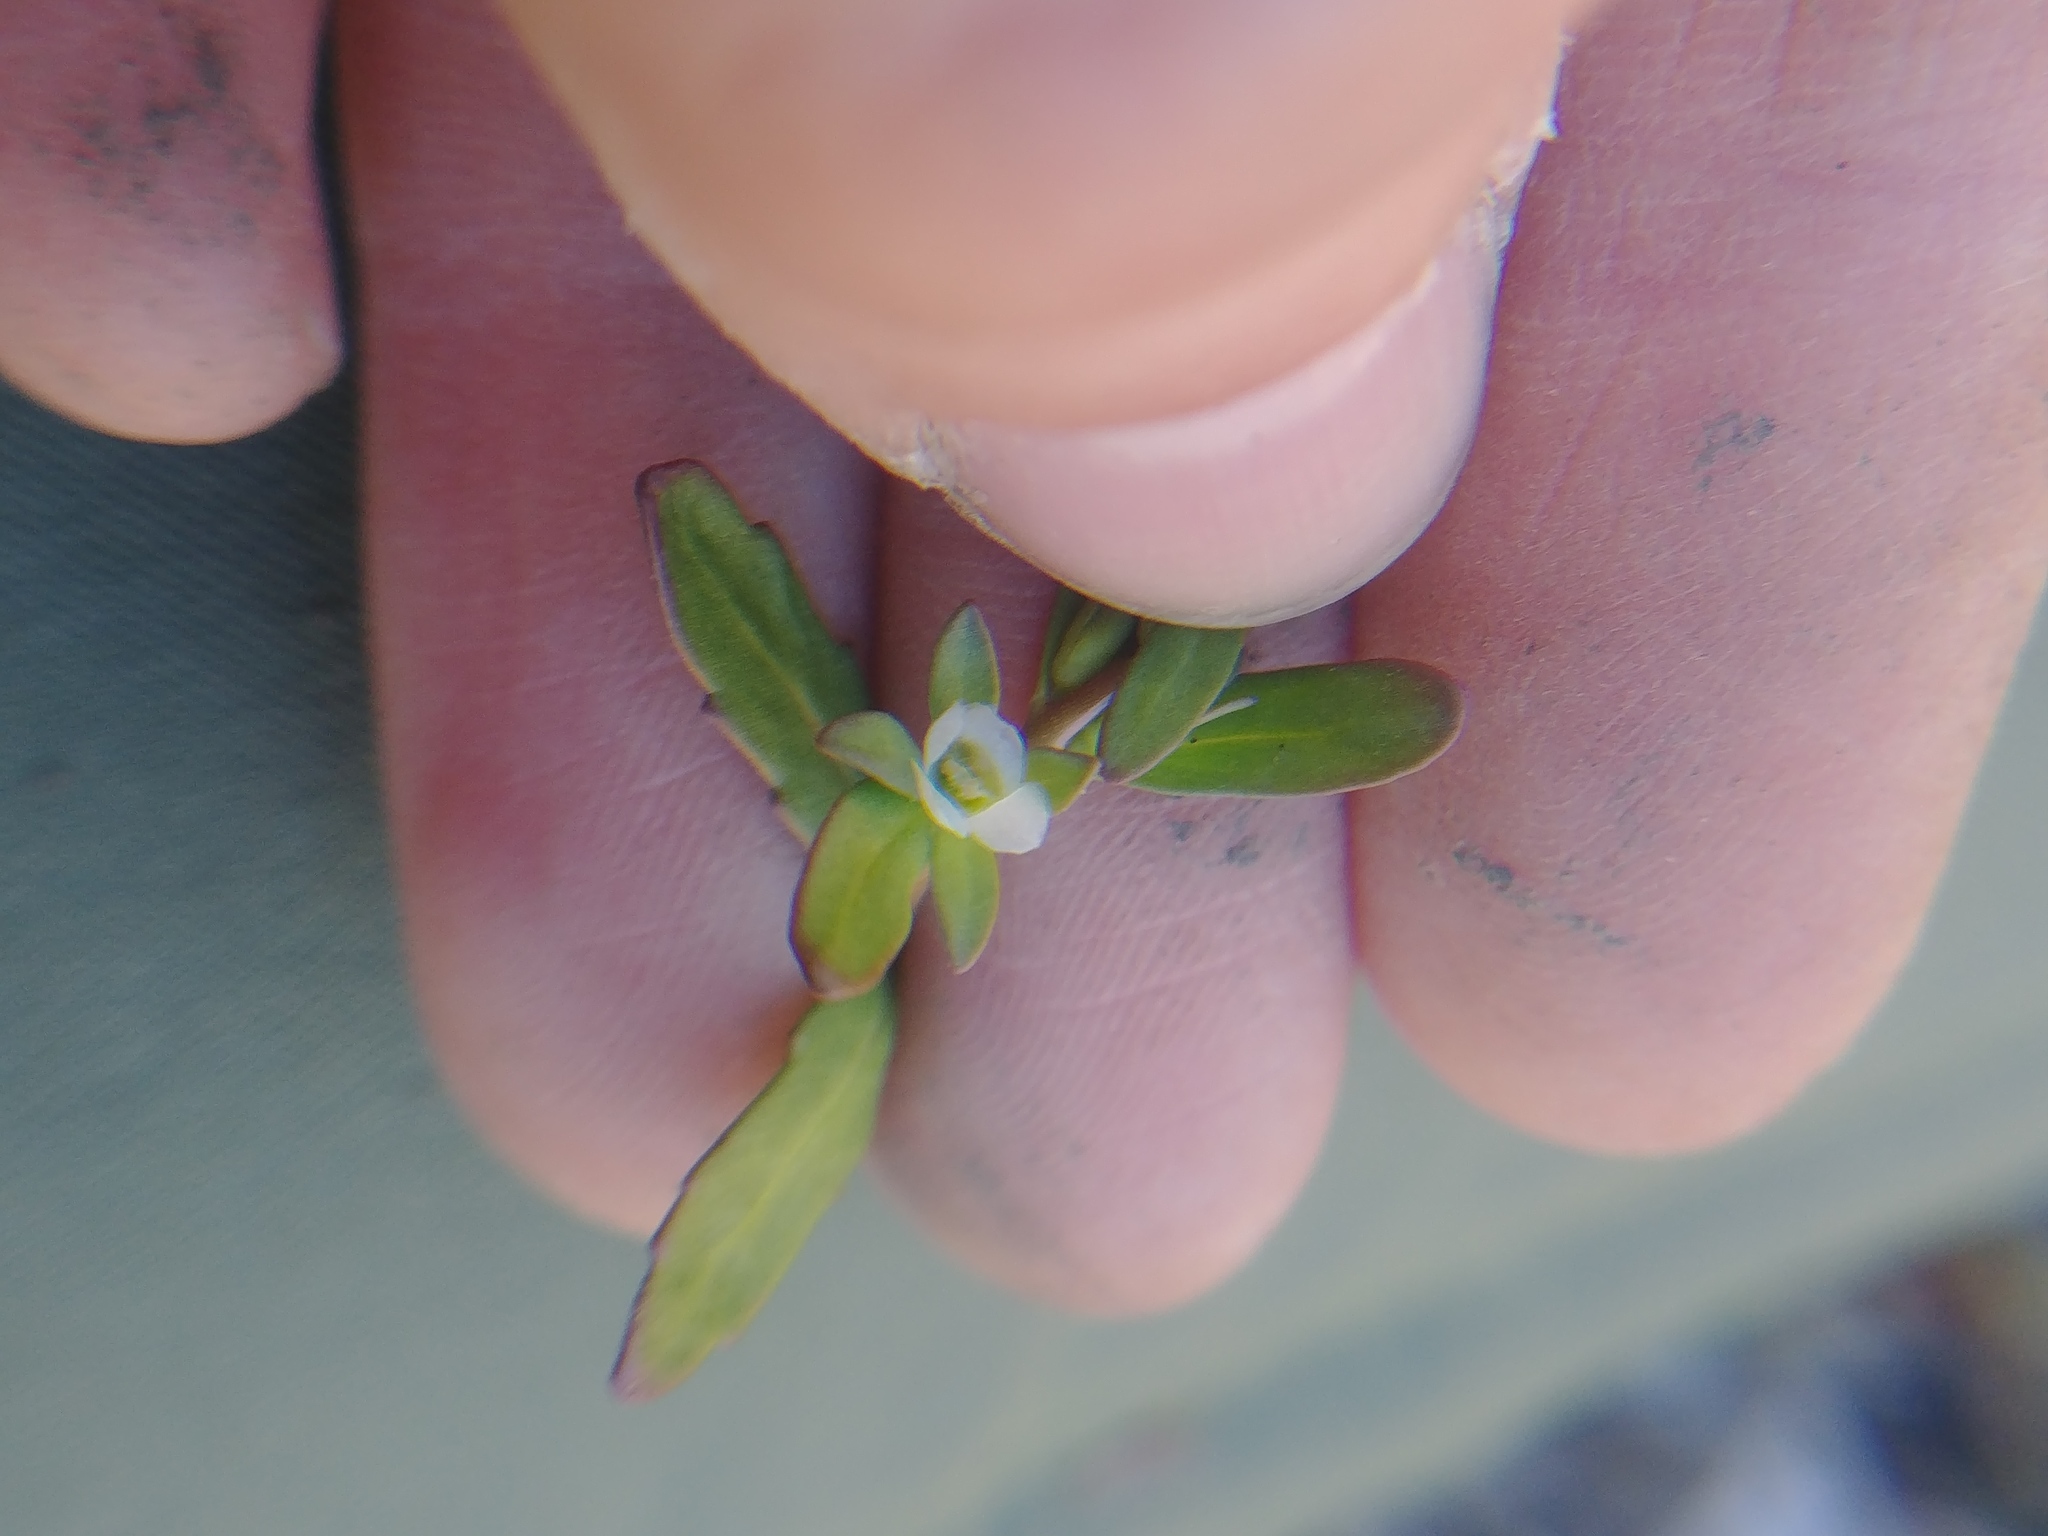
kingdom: Plantae
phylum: Tracheophyta
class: Magnoliopsida
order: Lamiales
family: Plantaginaceae
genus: Veronica
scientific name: Veronica peregrina
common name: Neckweed
